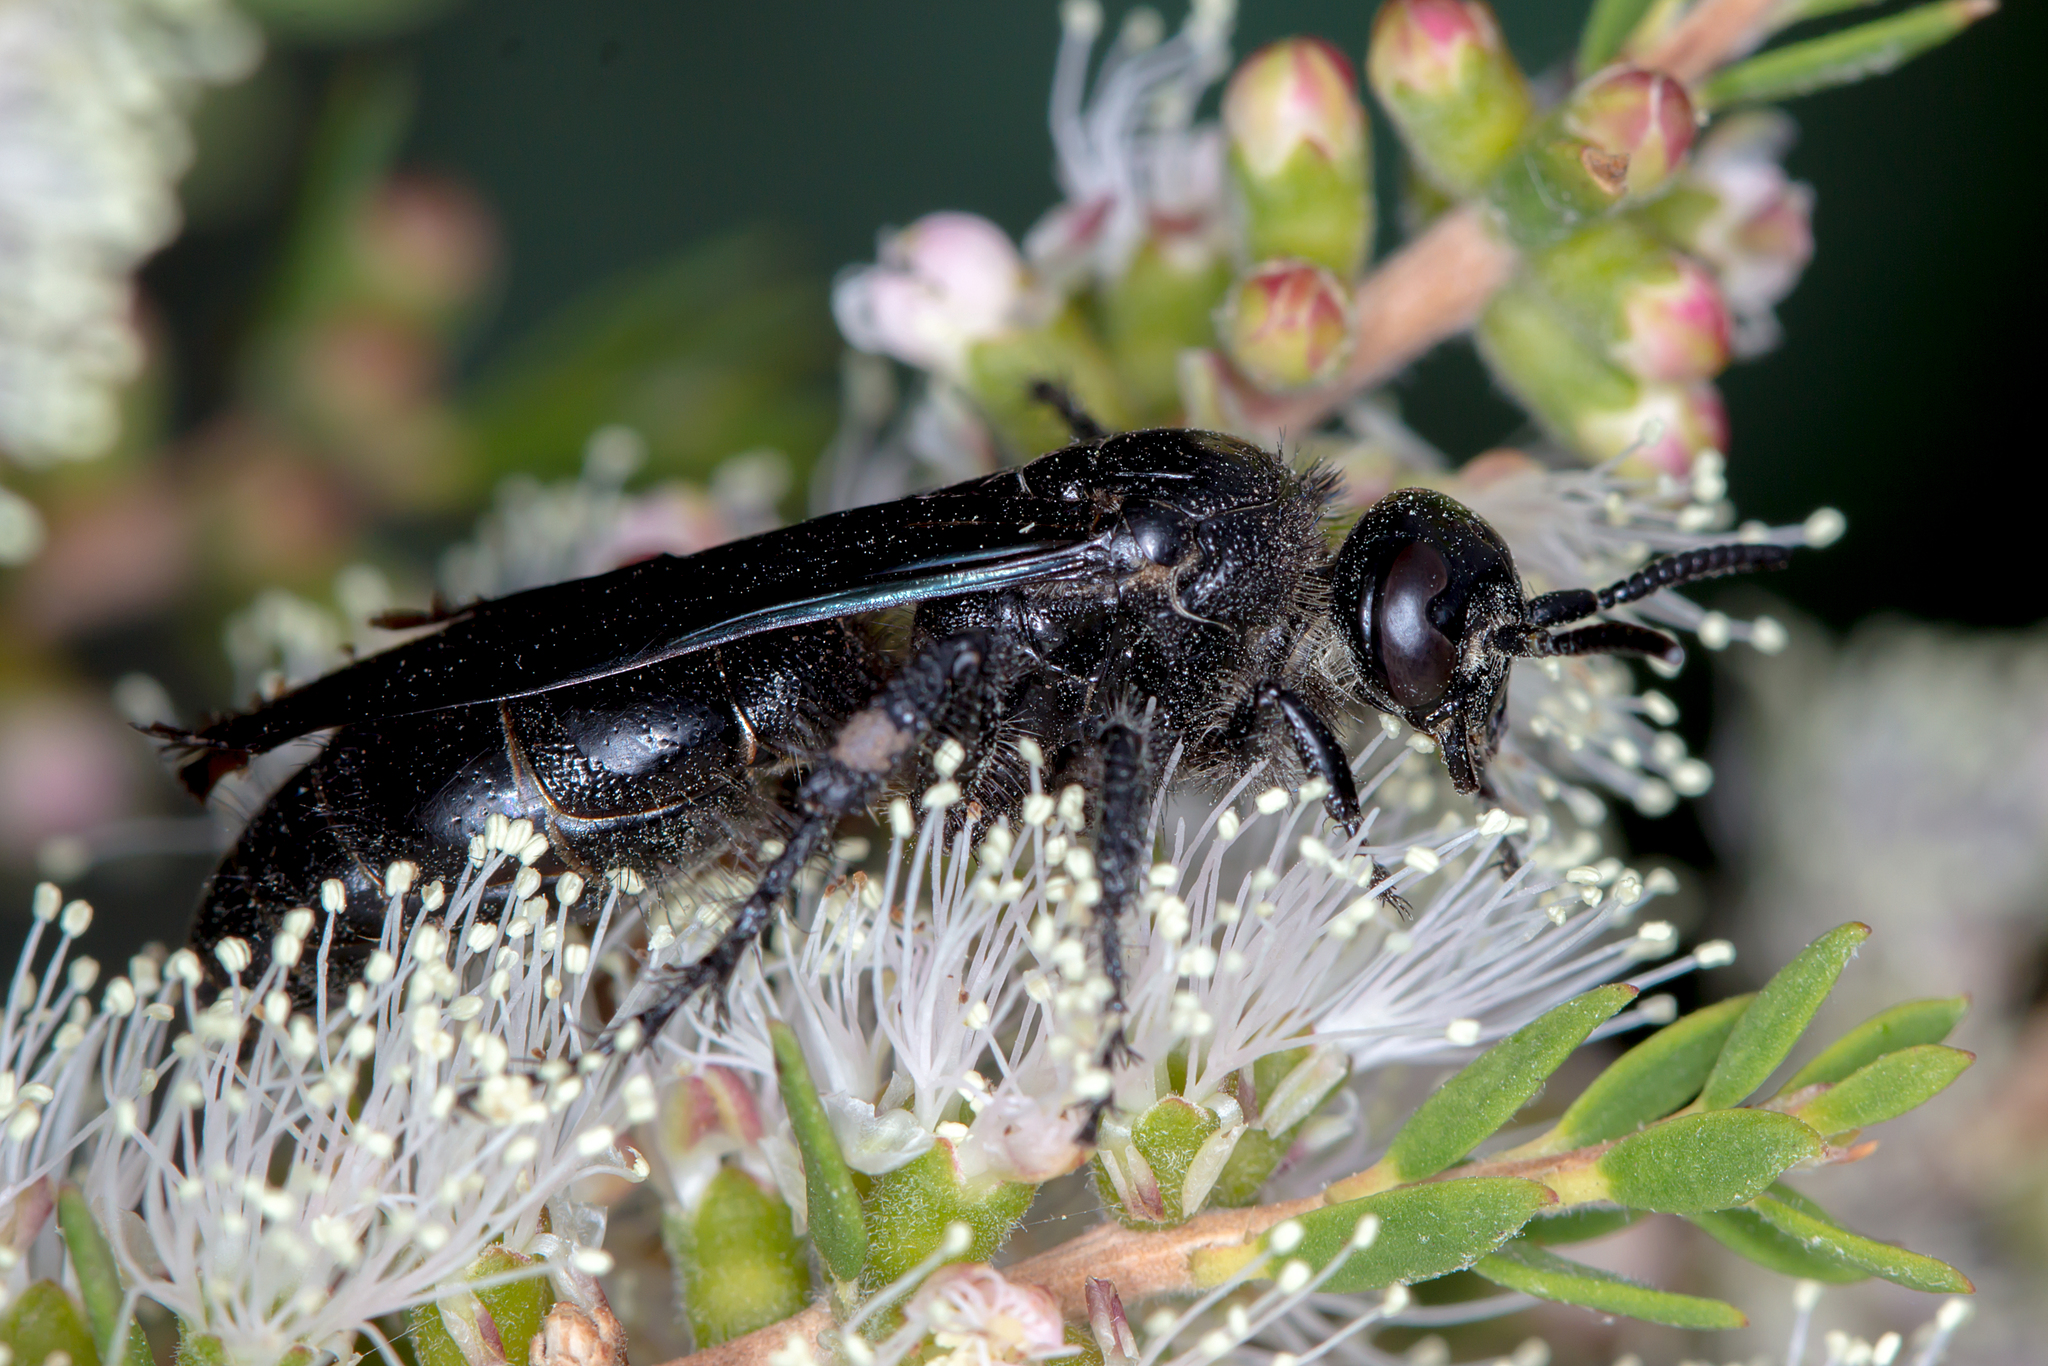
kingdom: Animalia
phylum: Arthropoda
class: Insecta
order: Hymenoptera
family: Scoliidae
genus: Austroscolia
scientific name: Austroscolia
